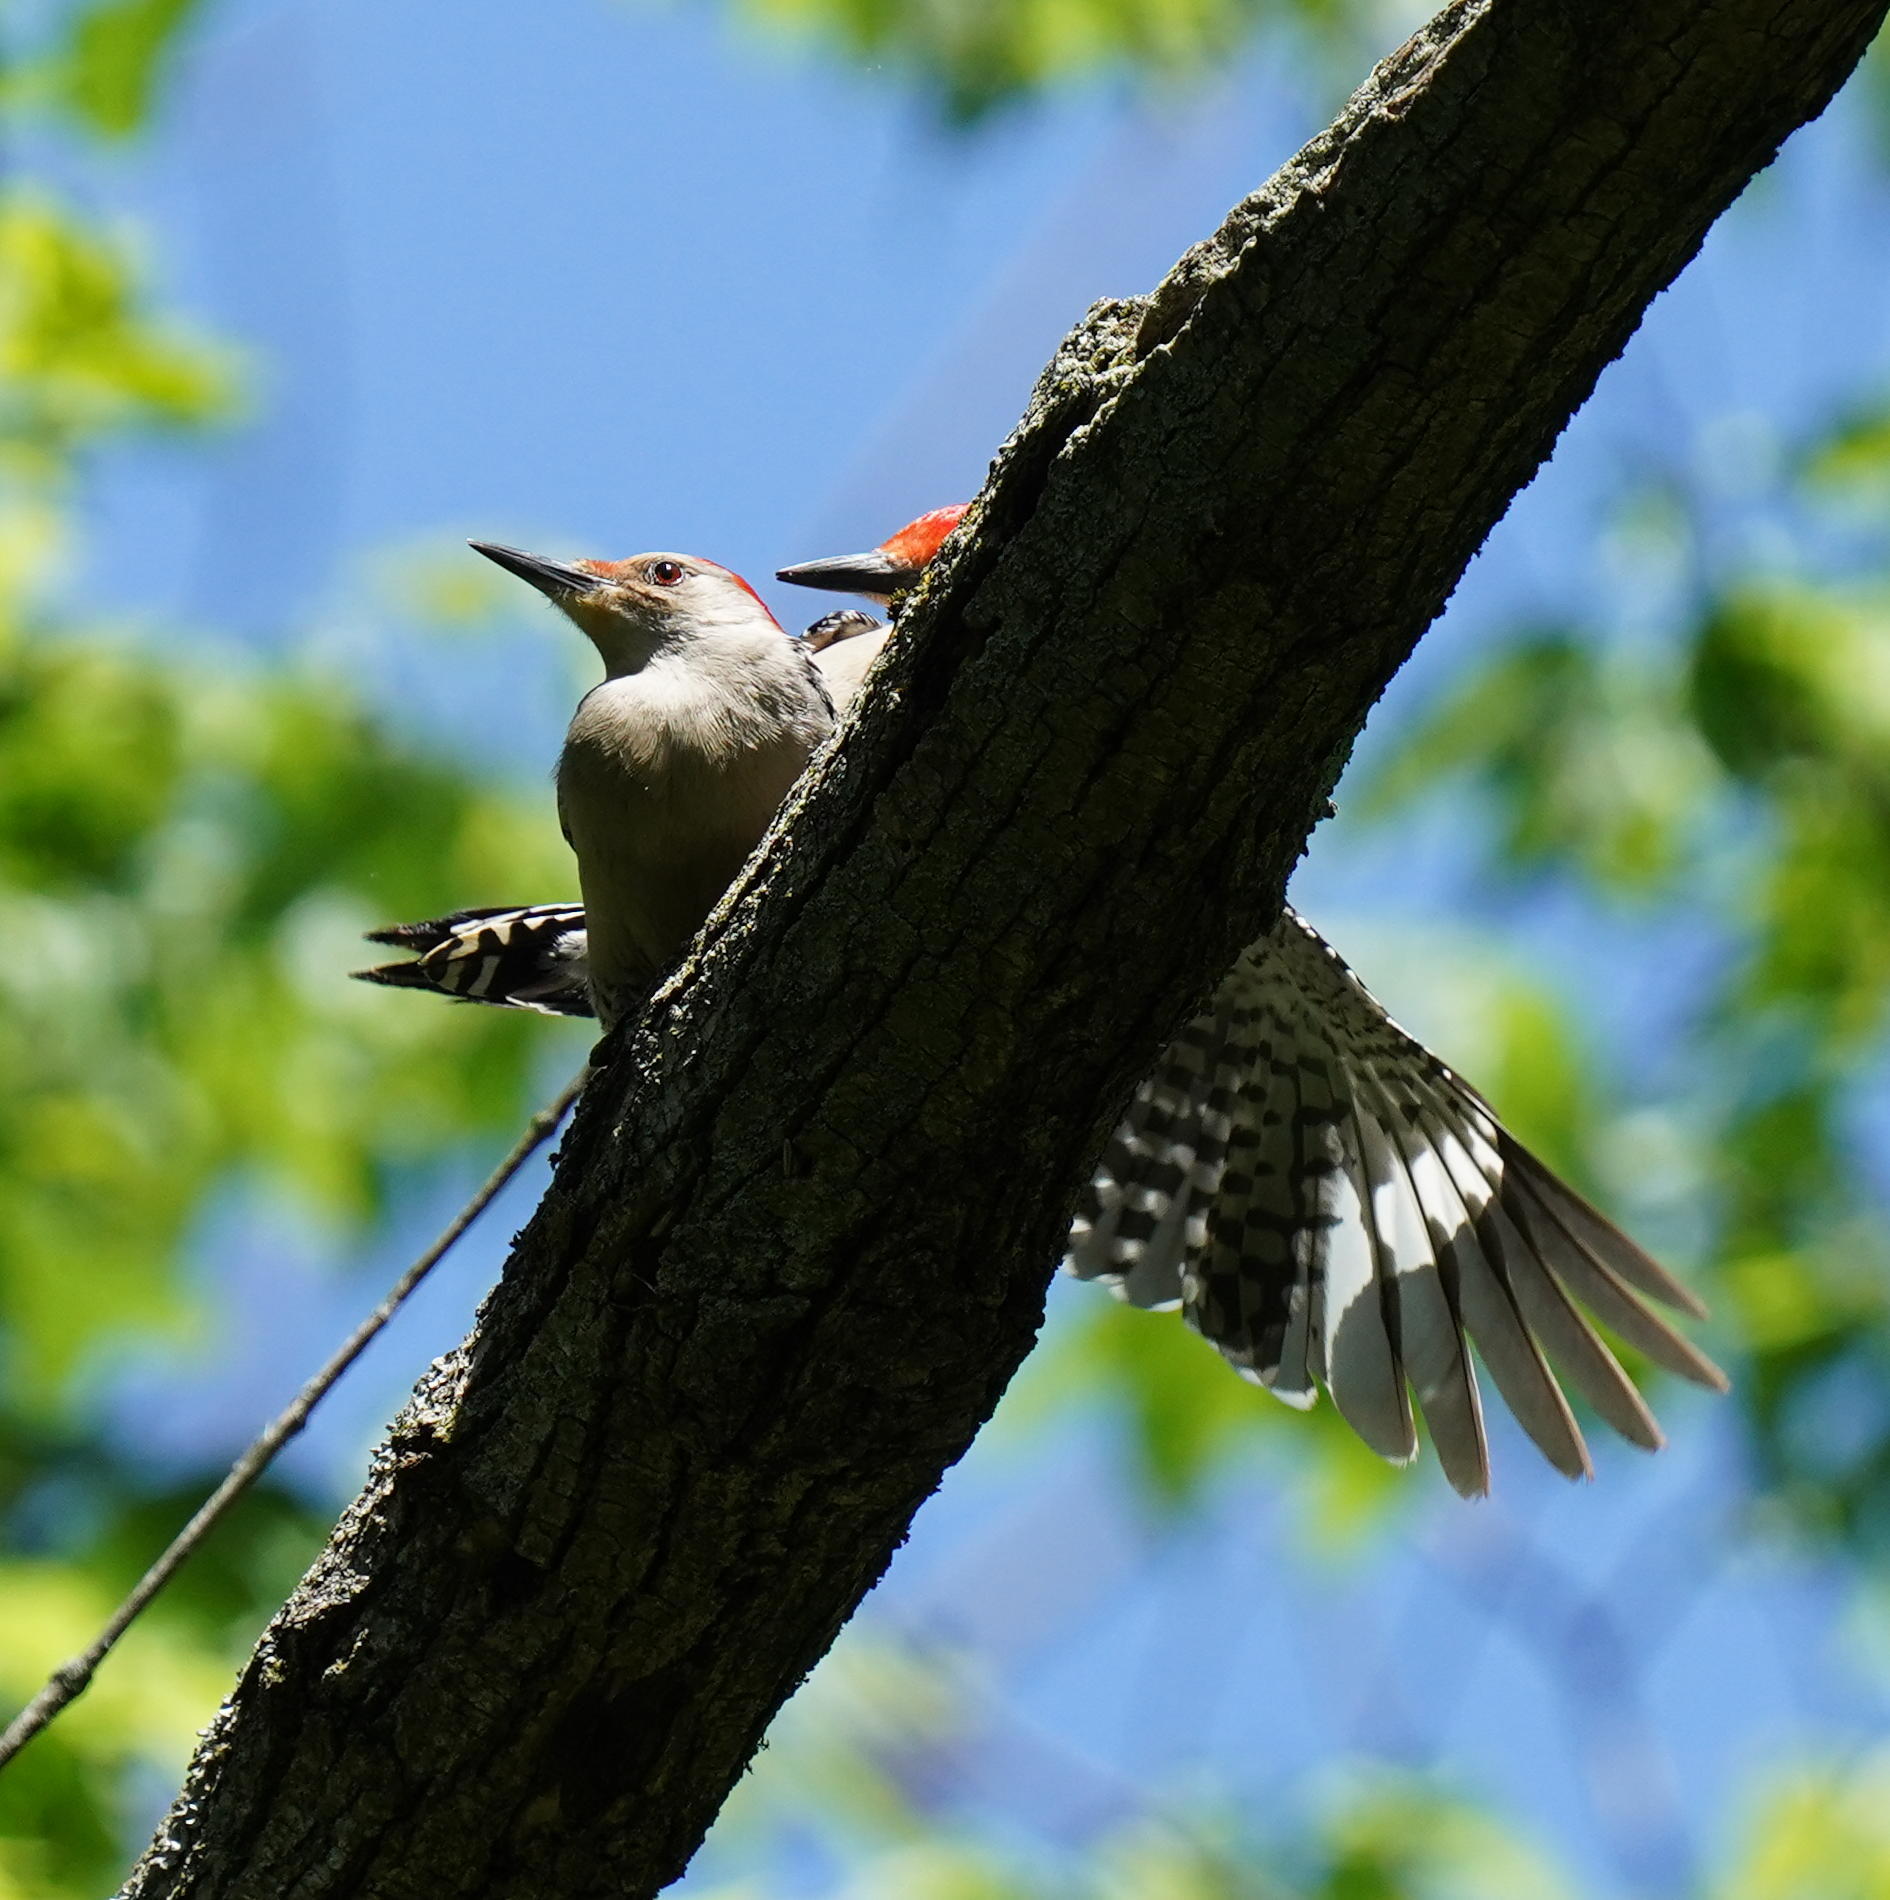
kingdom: Animalia
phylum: Chordata
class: Aves
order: Piciformes
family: Picidae
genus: Melanerpes
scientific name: Melanerpes carolinus
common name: Red-bellied woodpecker
